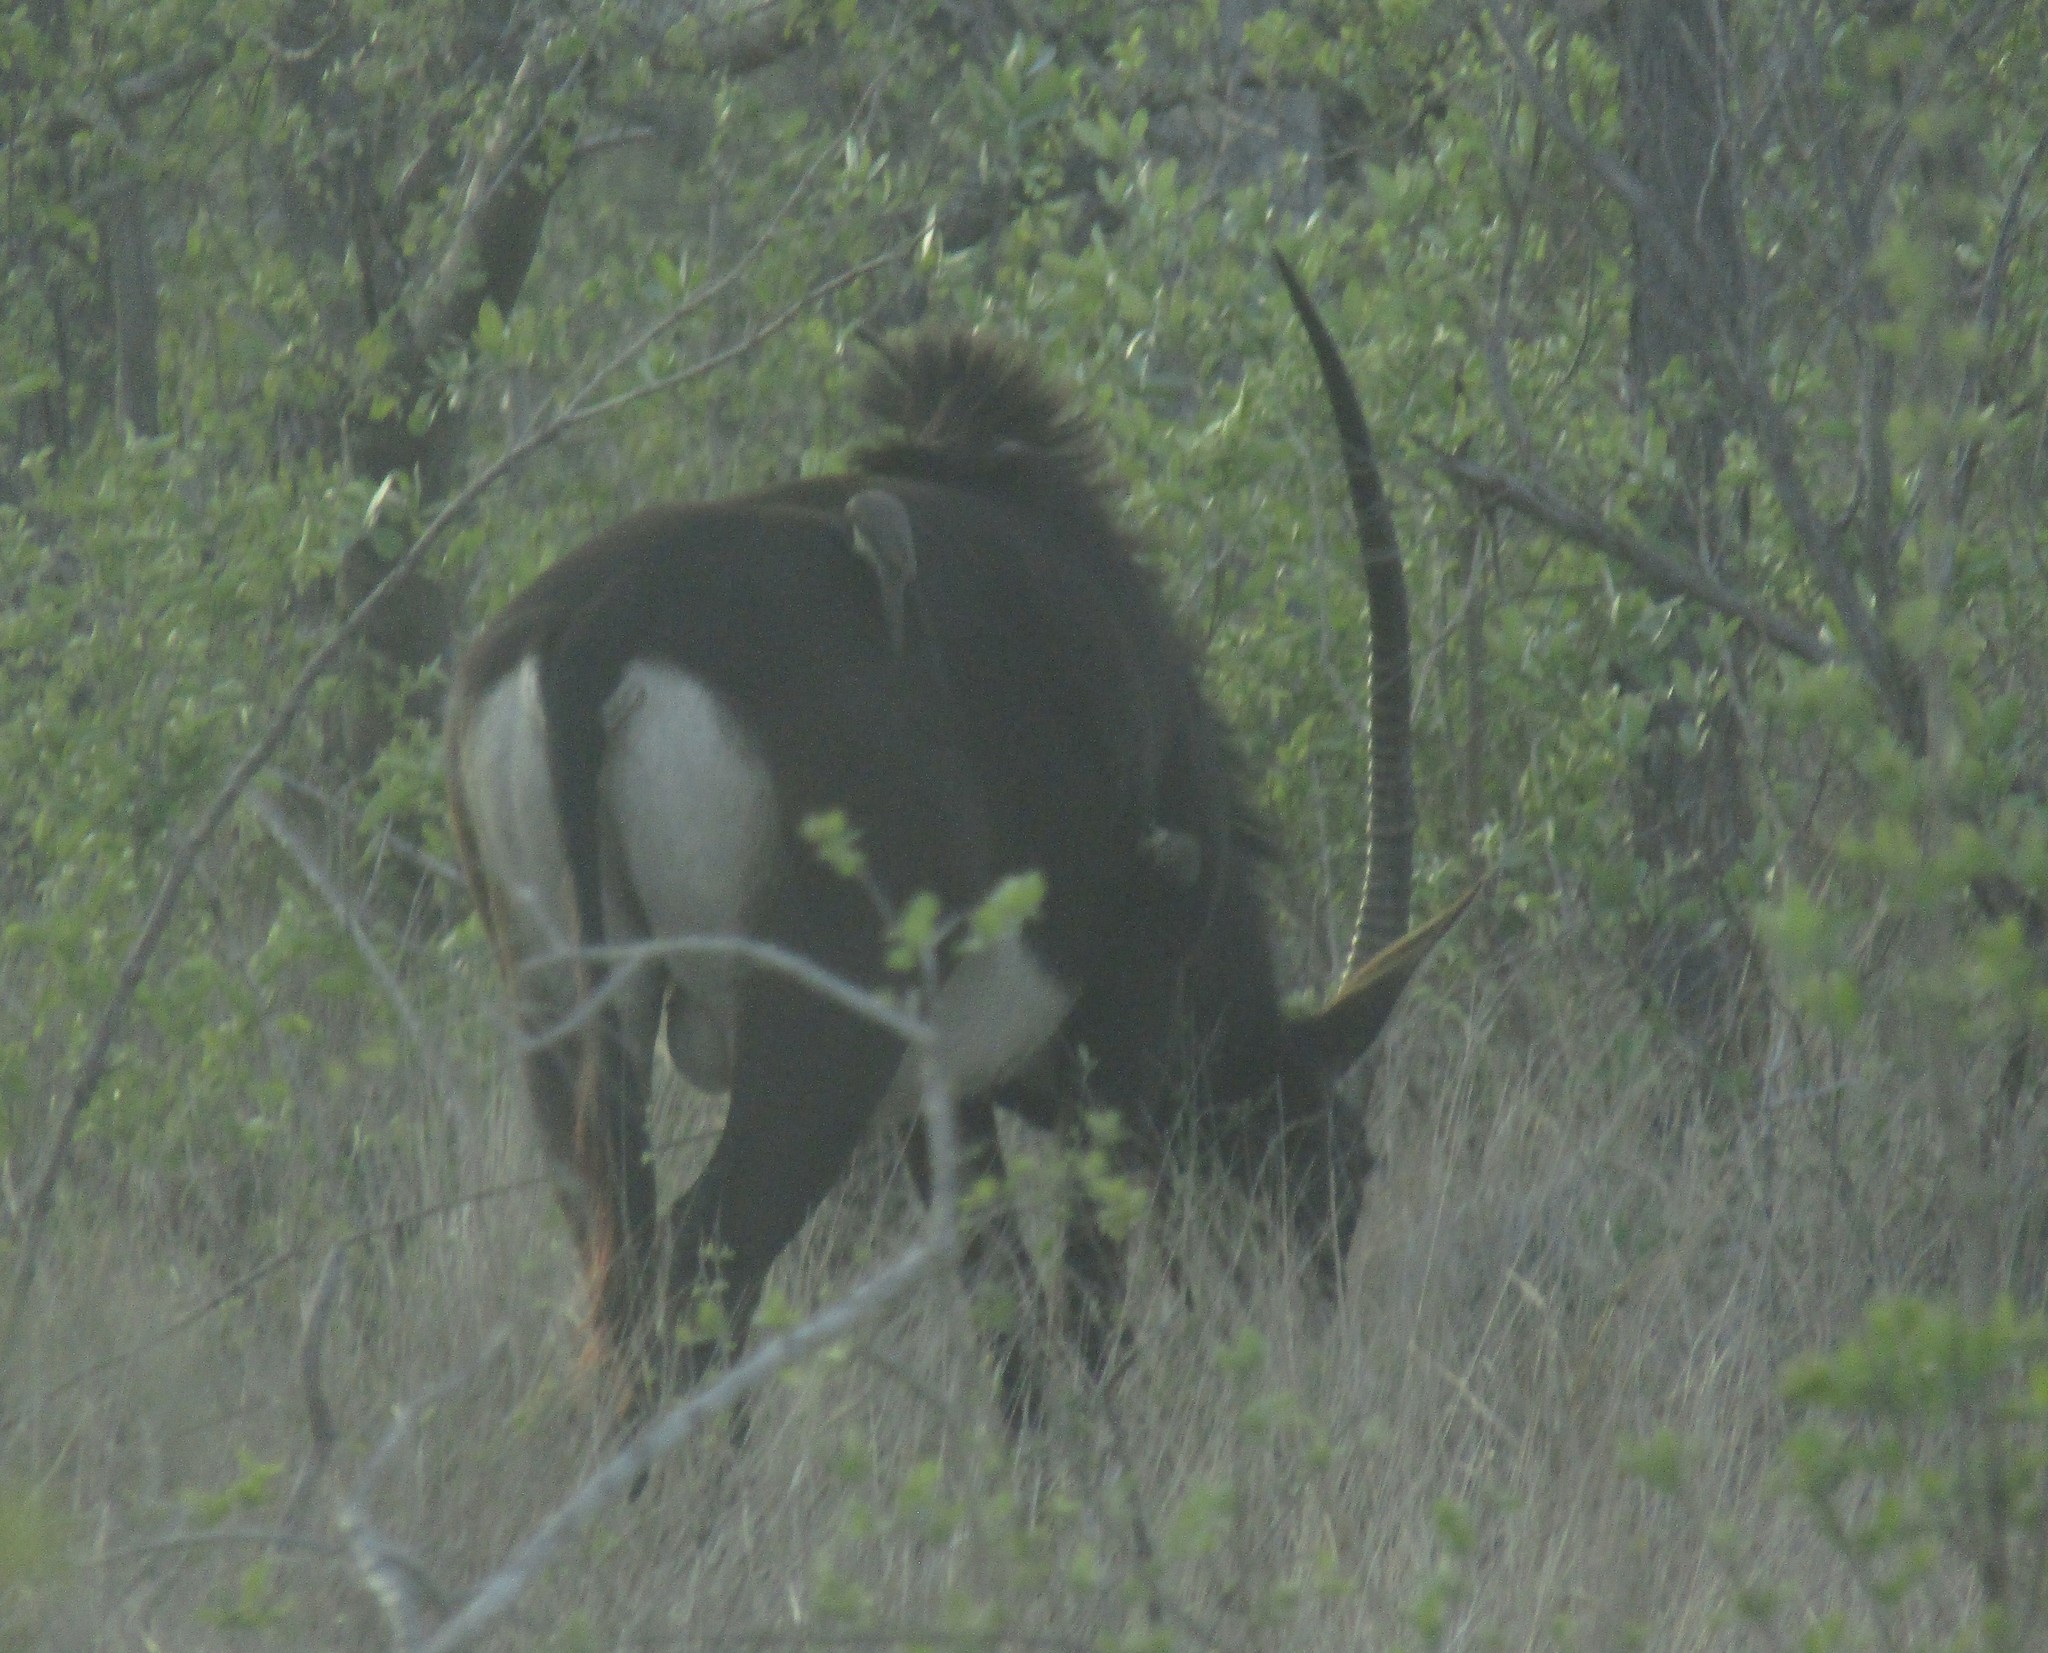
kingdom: Animalia
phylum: Chordata
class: Mammalia
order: Artiodactyla
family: Bovidae
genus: Hippotragus
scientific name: Hippotragus niger
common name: Sable antelope
